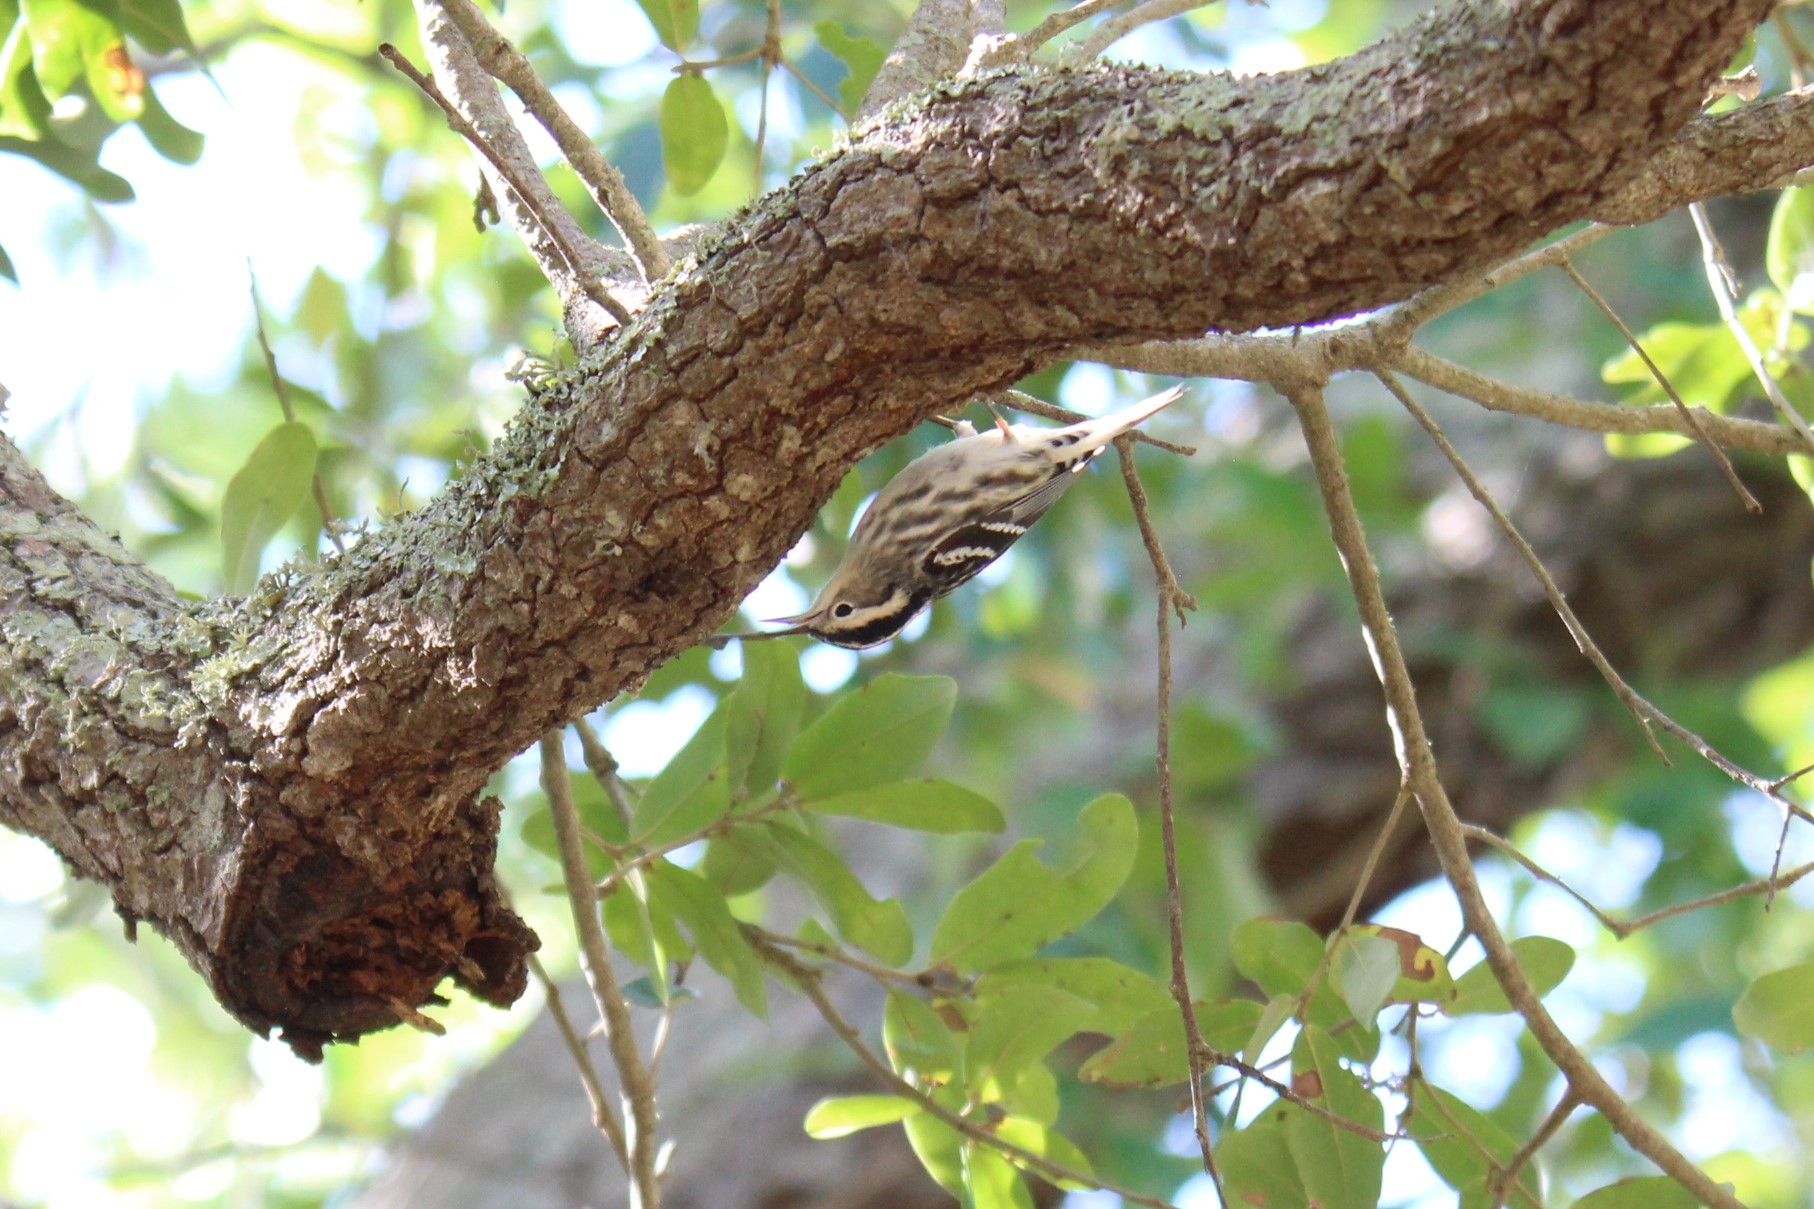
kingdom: Animalia
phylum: Chordata
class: Aves
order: Passeriformes
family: Parulidae
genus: Mniotilta
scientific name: Mniotilta varia
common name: Black-and-white warbler
